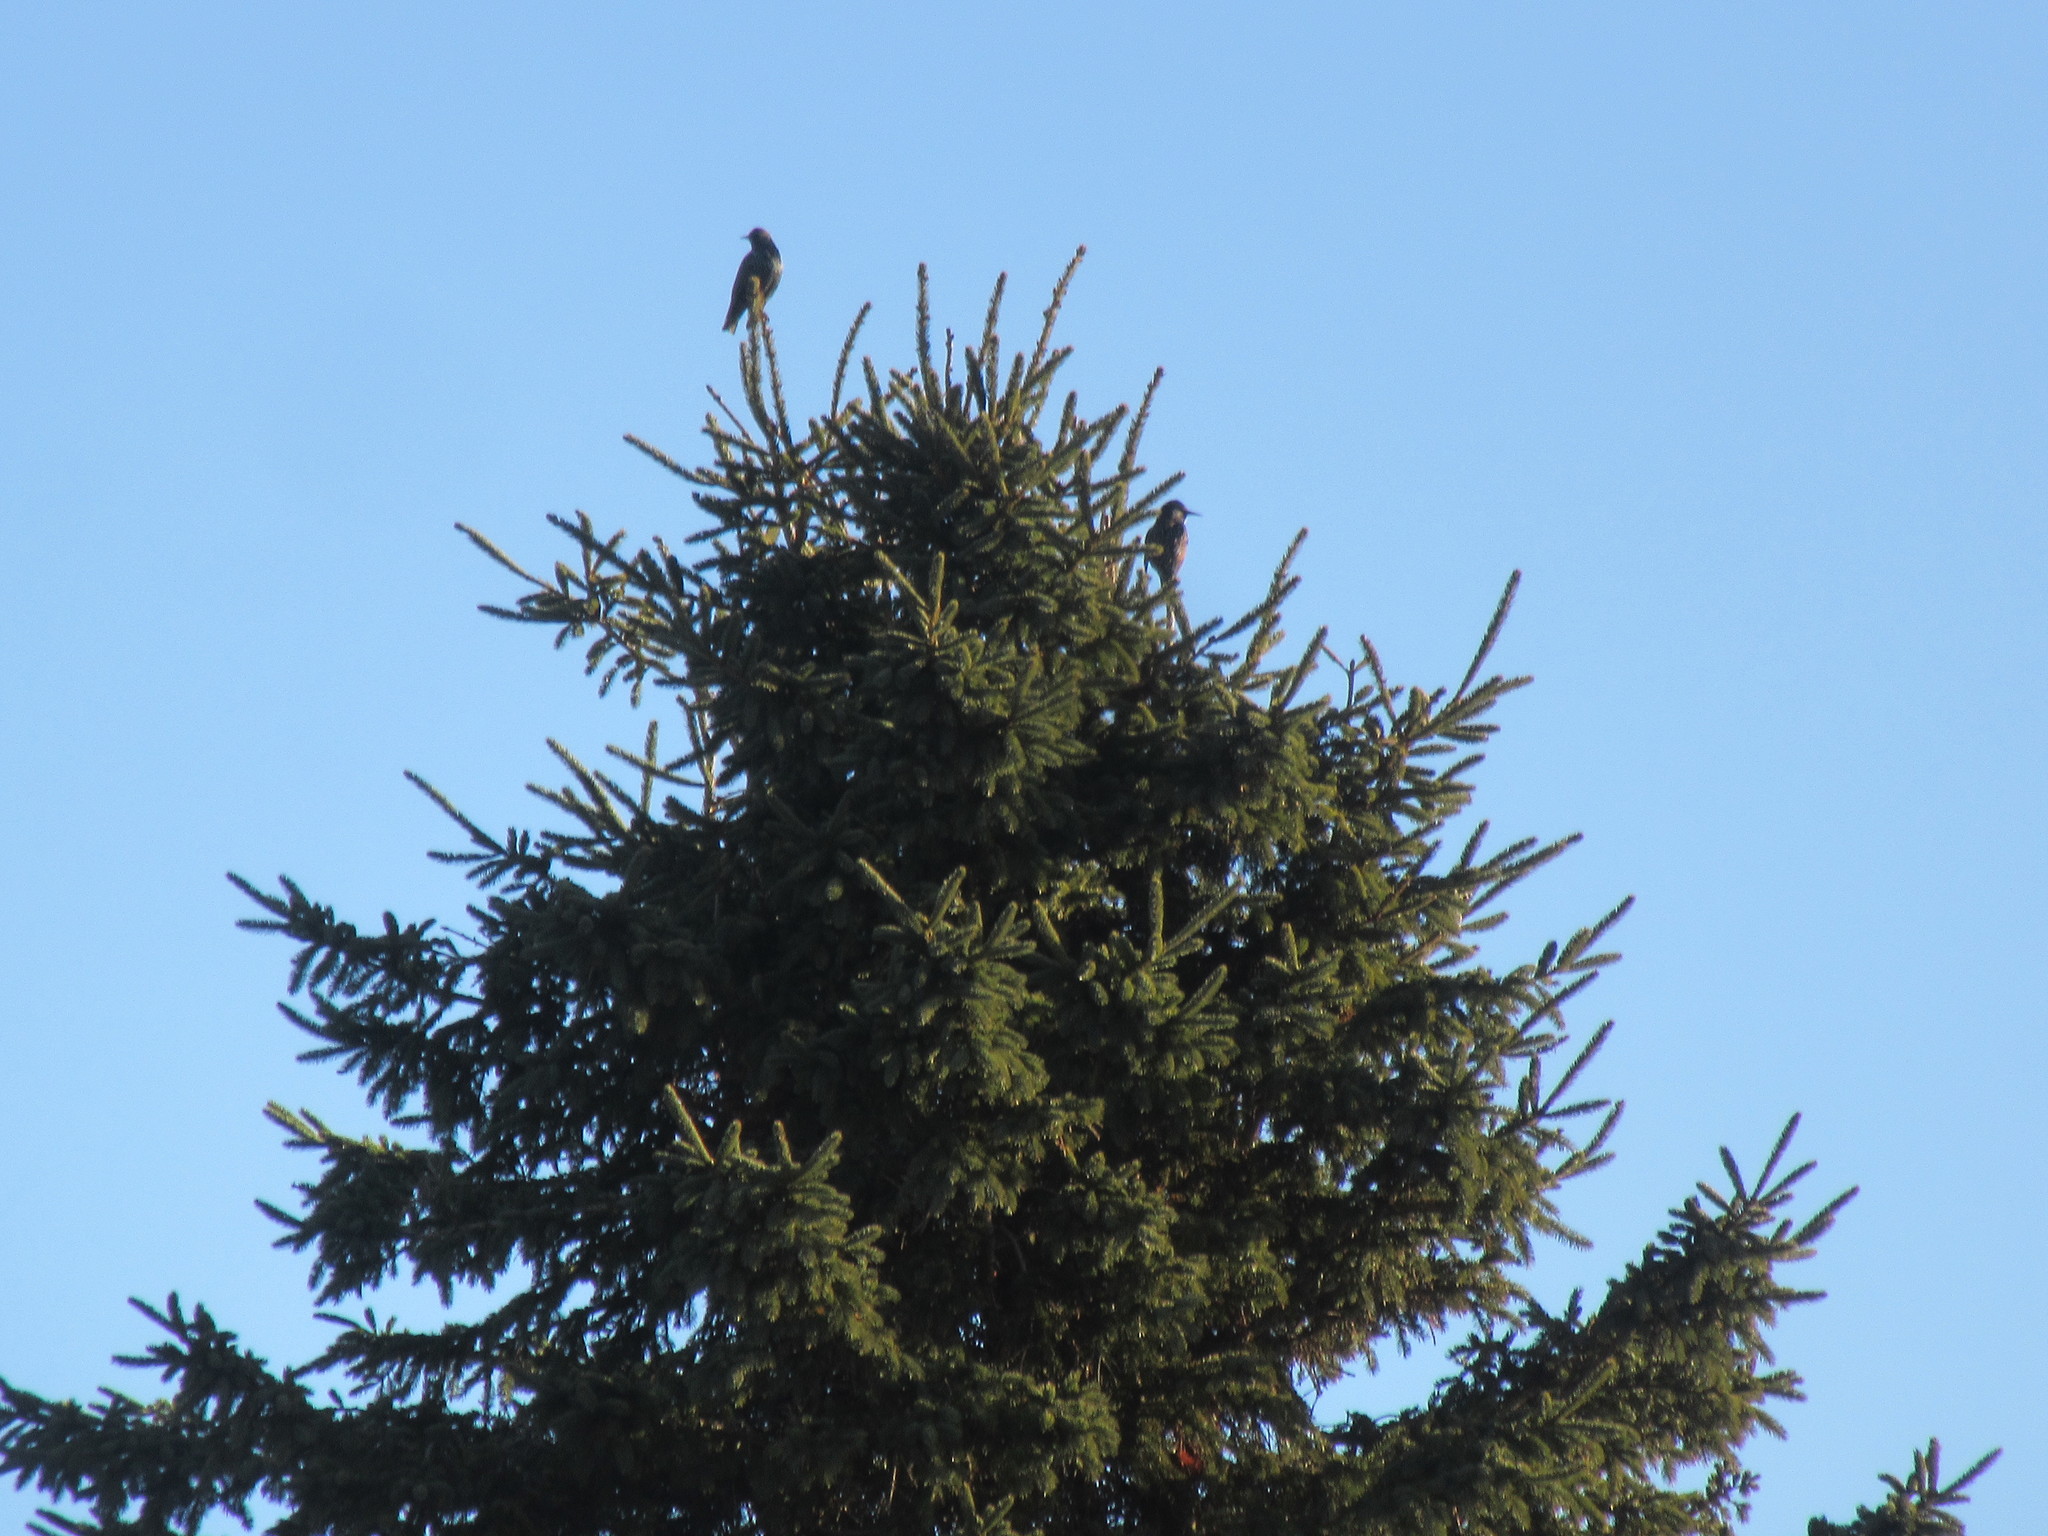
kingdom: Animalia
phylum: Chordata
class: Aves
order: Passeriformes
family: Sturnidae
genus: Sturnus
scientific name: Sturnus vulgaris
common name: Common starling
